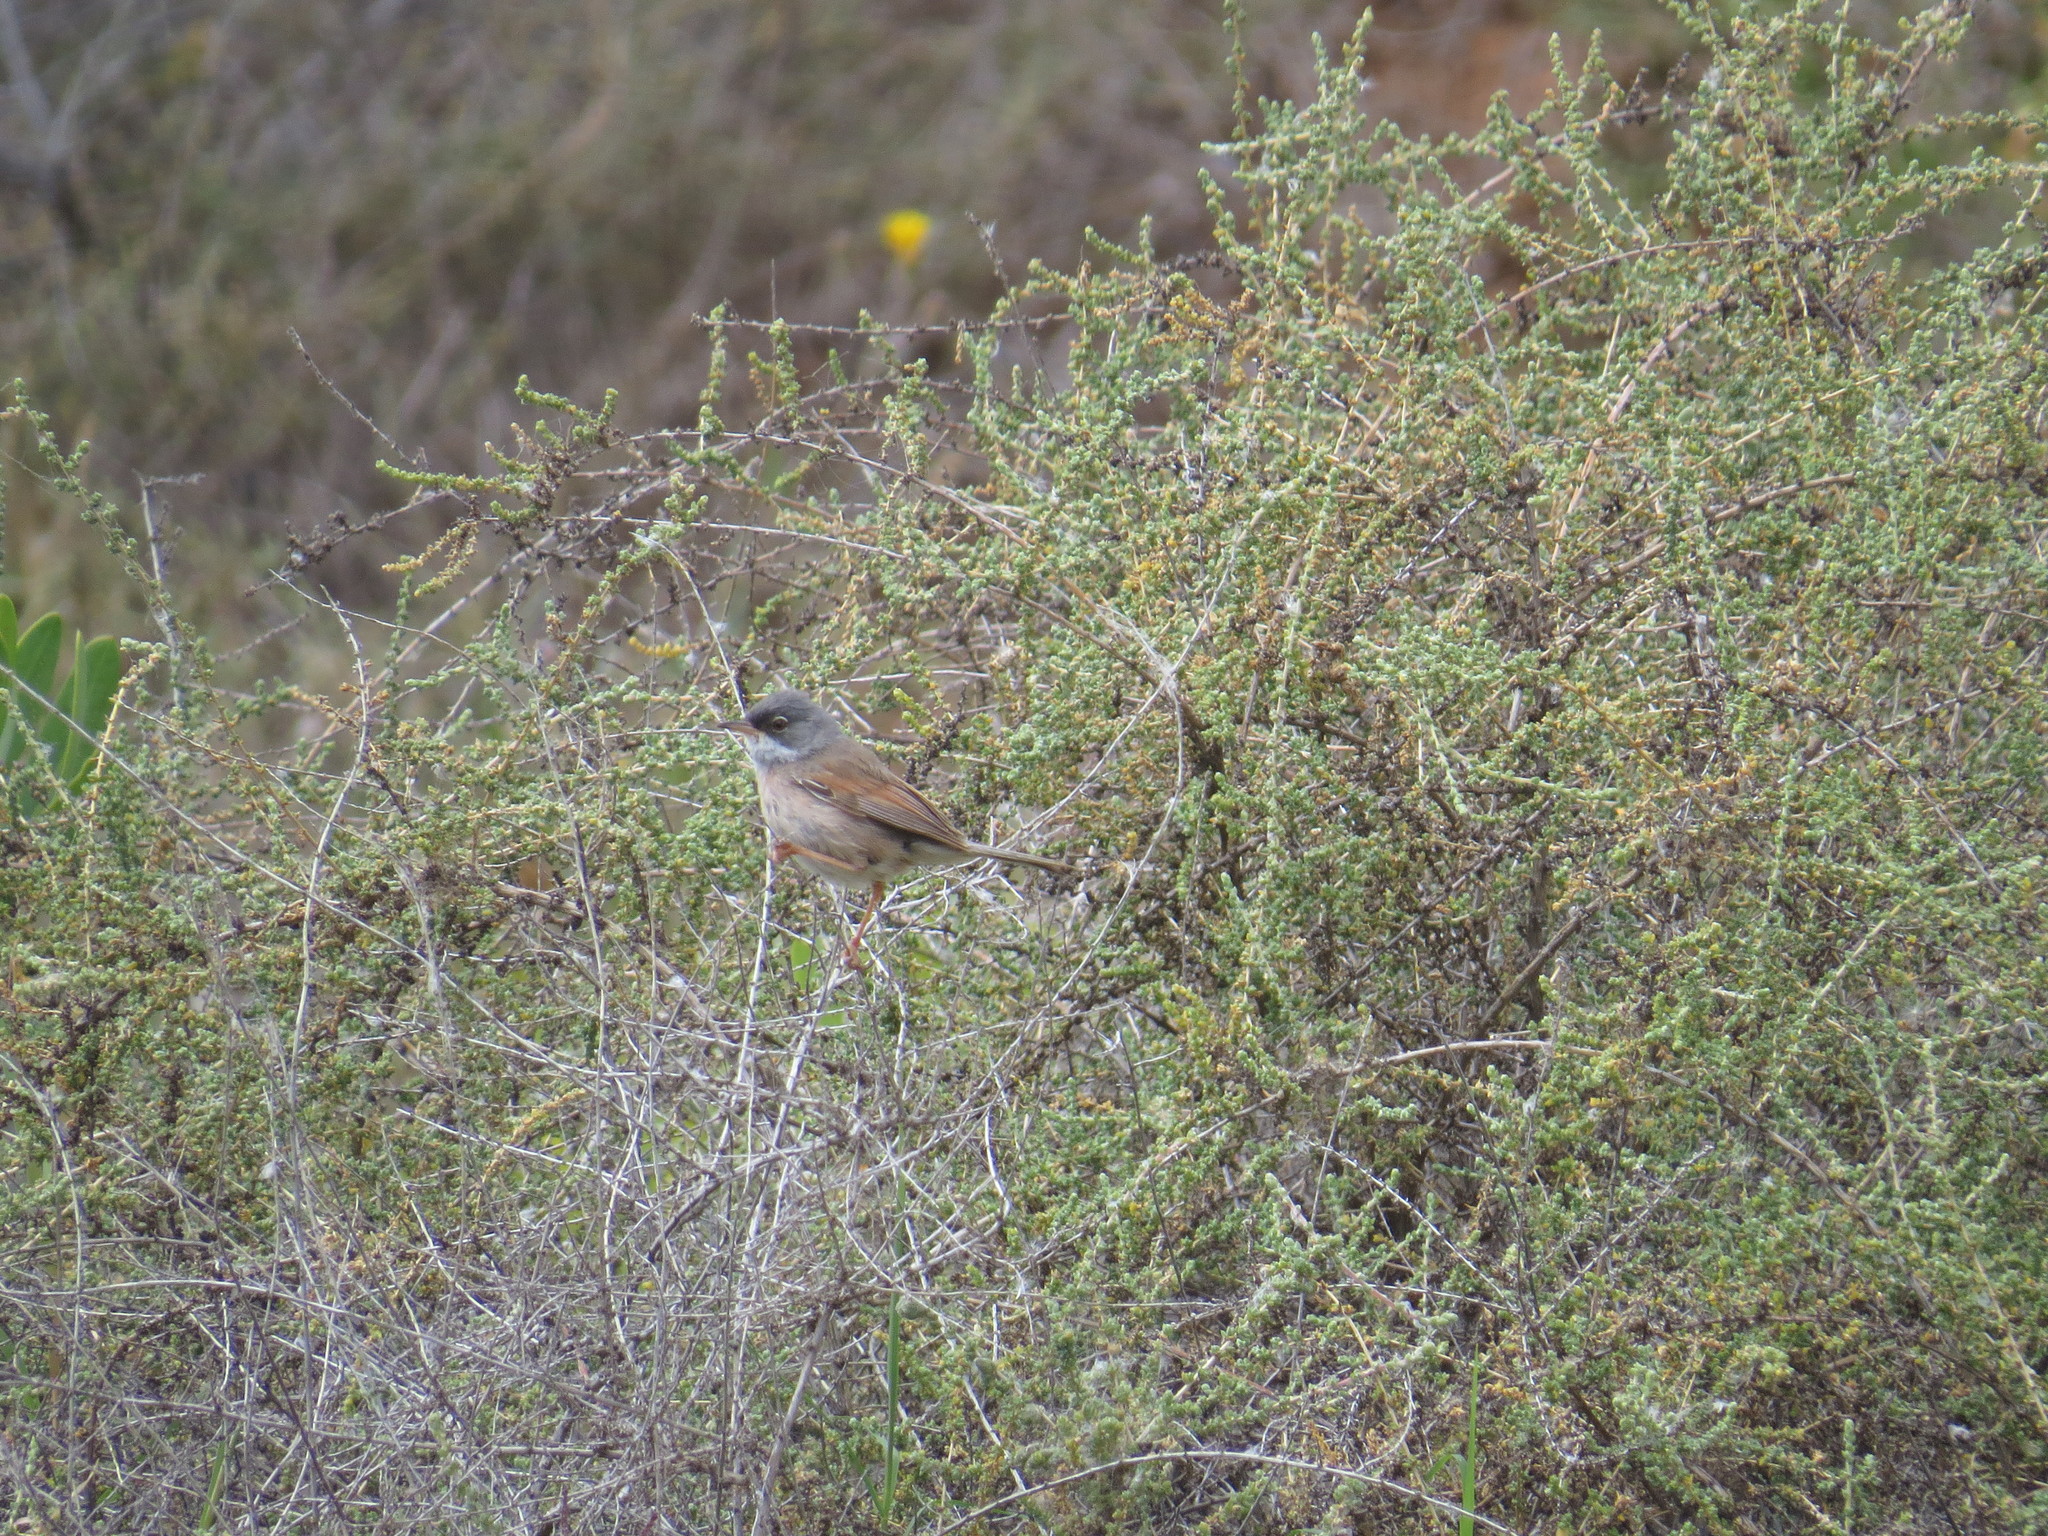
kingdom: Animalia
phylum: Chordata
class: Aves
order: Passeriformes
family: Sylviidae
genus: Sylvia
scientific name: Sylvia conspicillata
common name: Spectacled warbler
